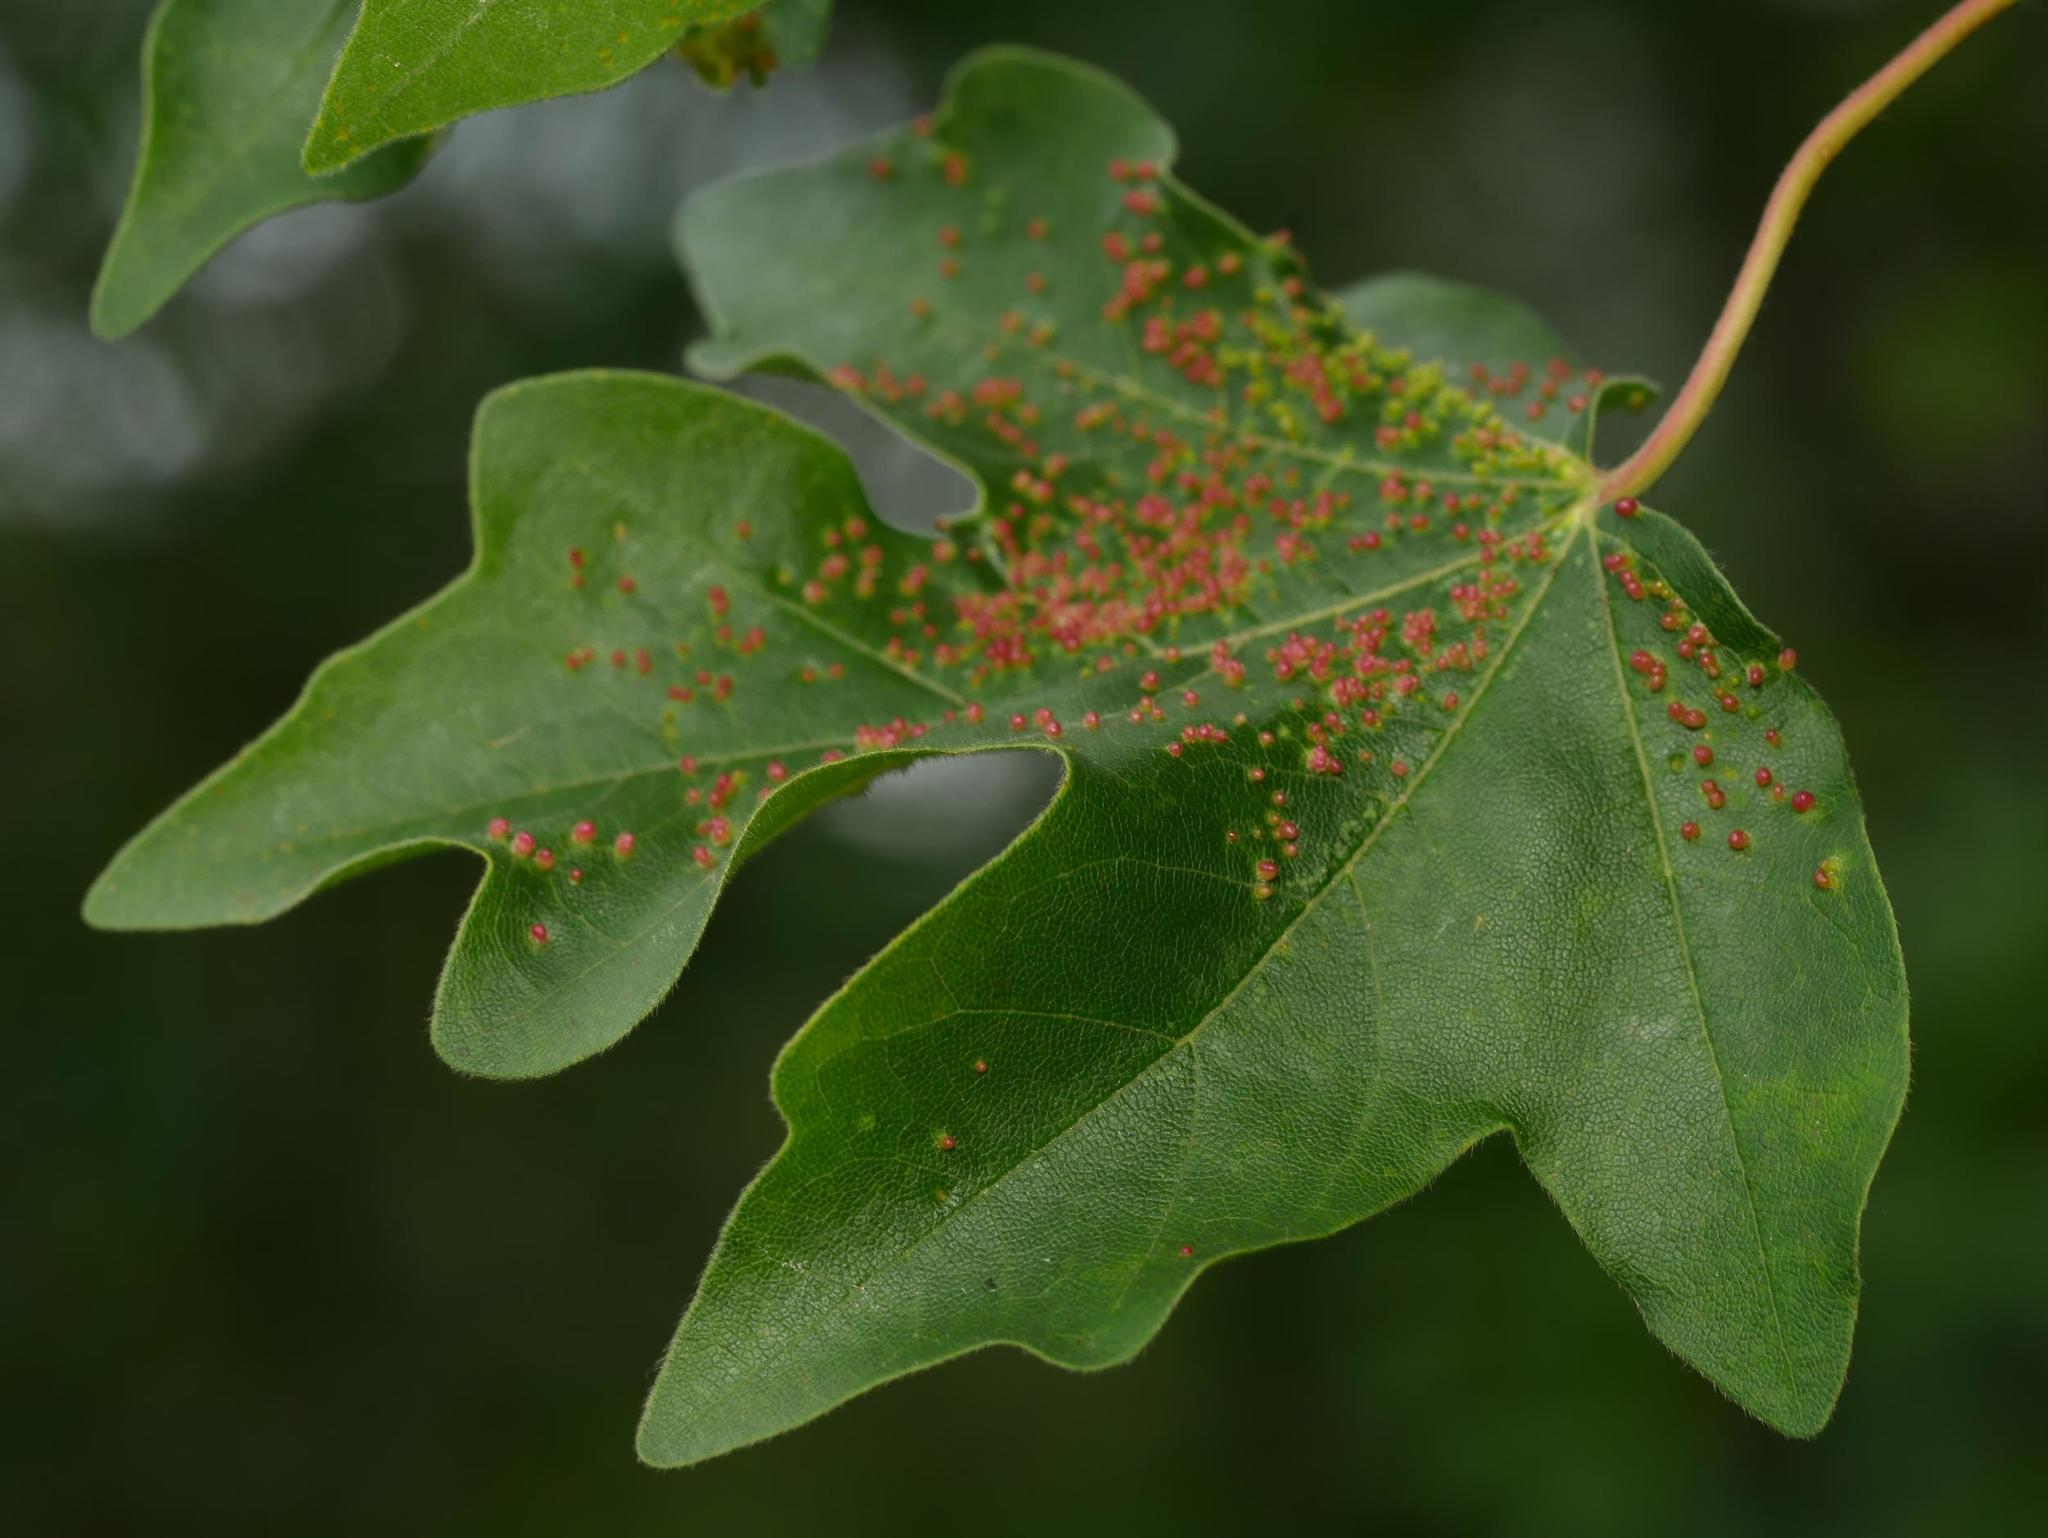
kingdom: Plantae
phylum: Tracheophyta
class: Magnoliopsida
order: Sapindales
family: Sapindaceae
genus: Acer
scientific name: Acer campestre
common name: Field maple
